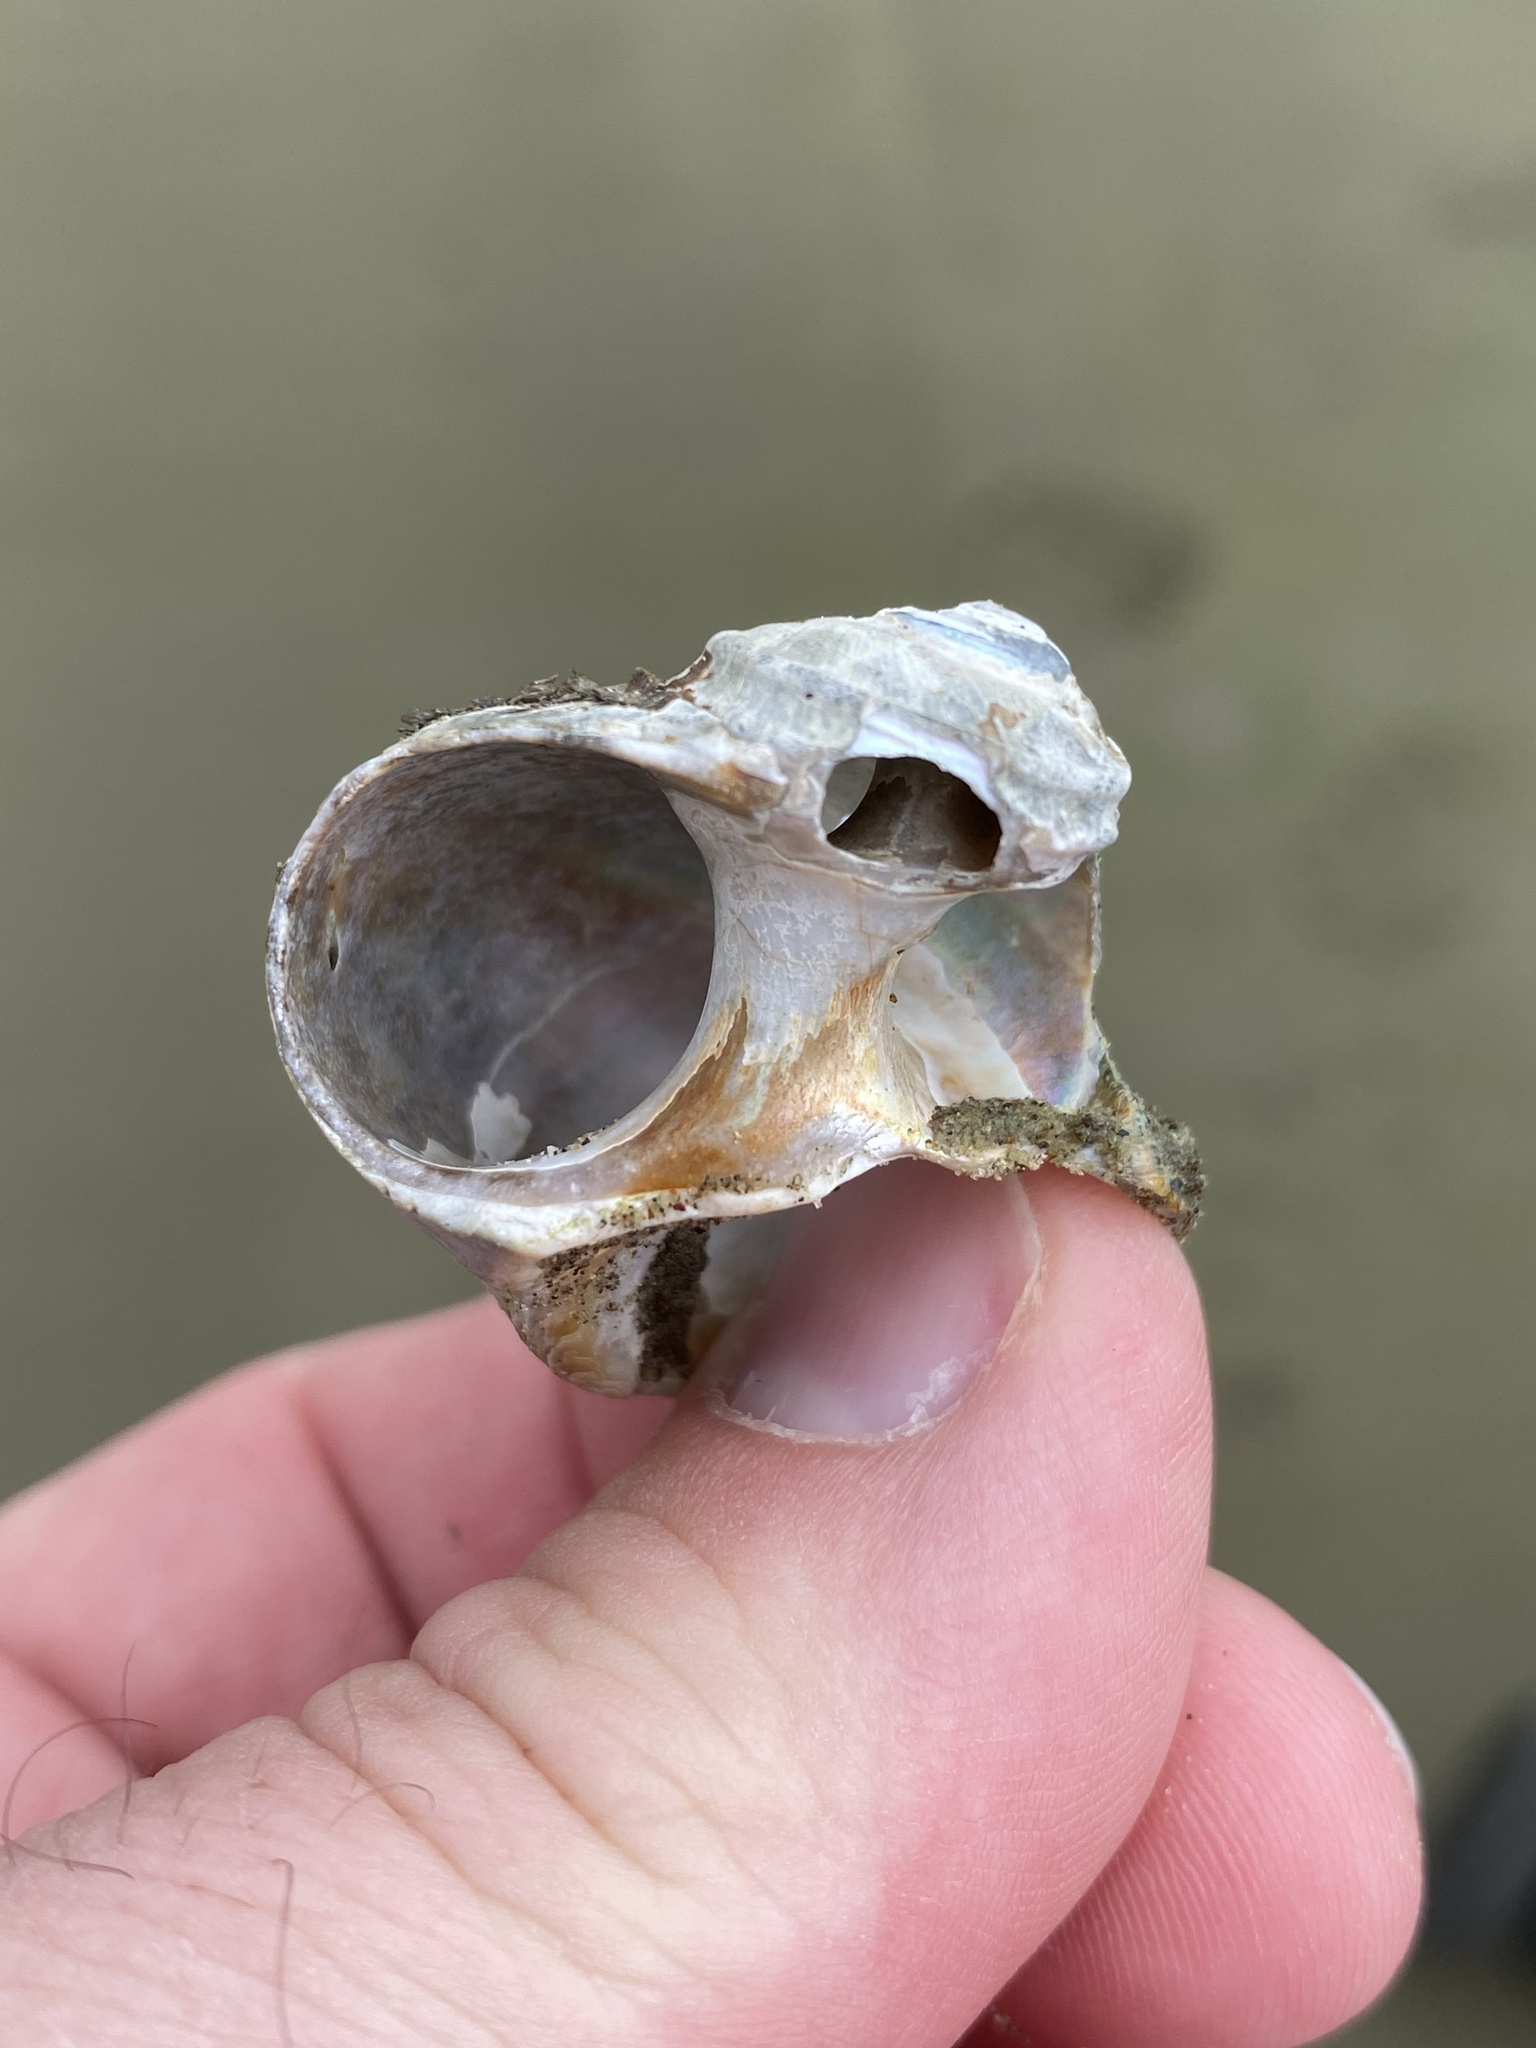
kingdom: Animalia
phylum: Mollusca
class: Gastropoda
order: Trochida
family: Turbinidae
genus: Lunella
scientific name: Lunella smaragda
